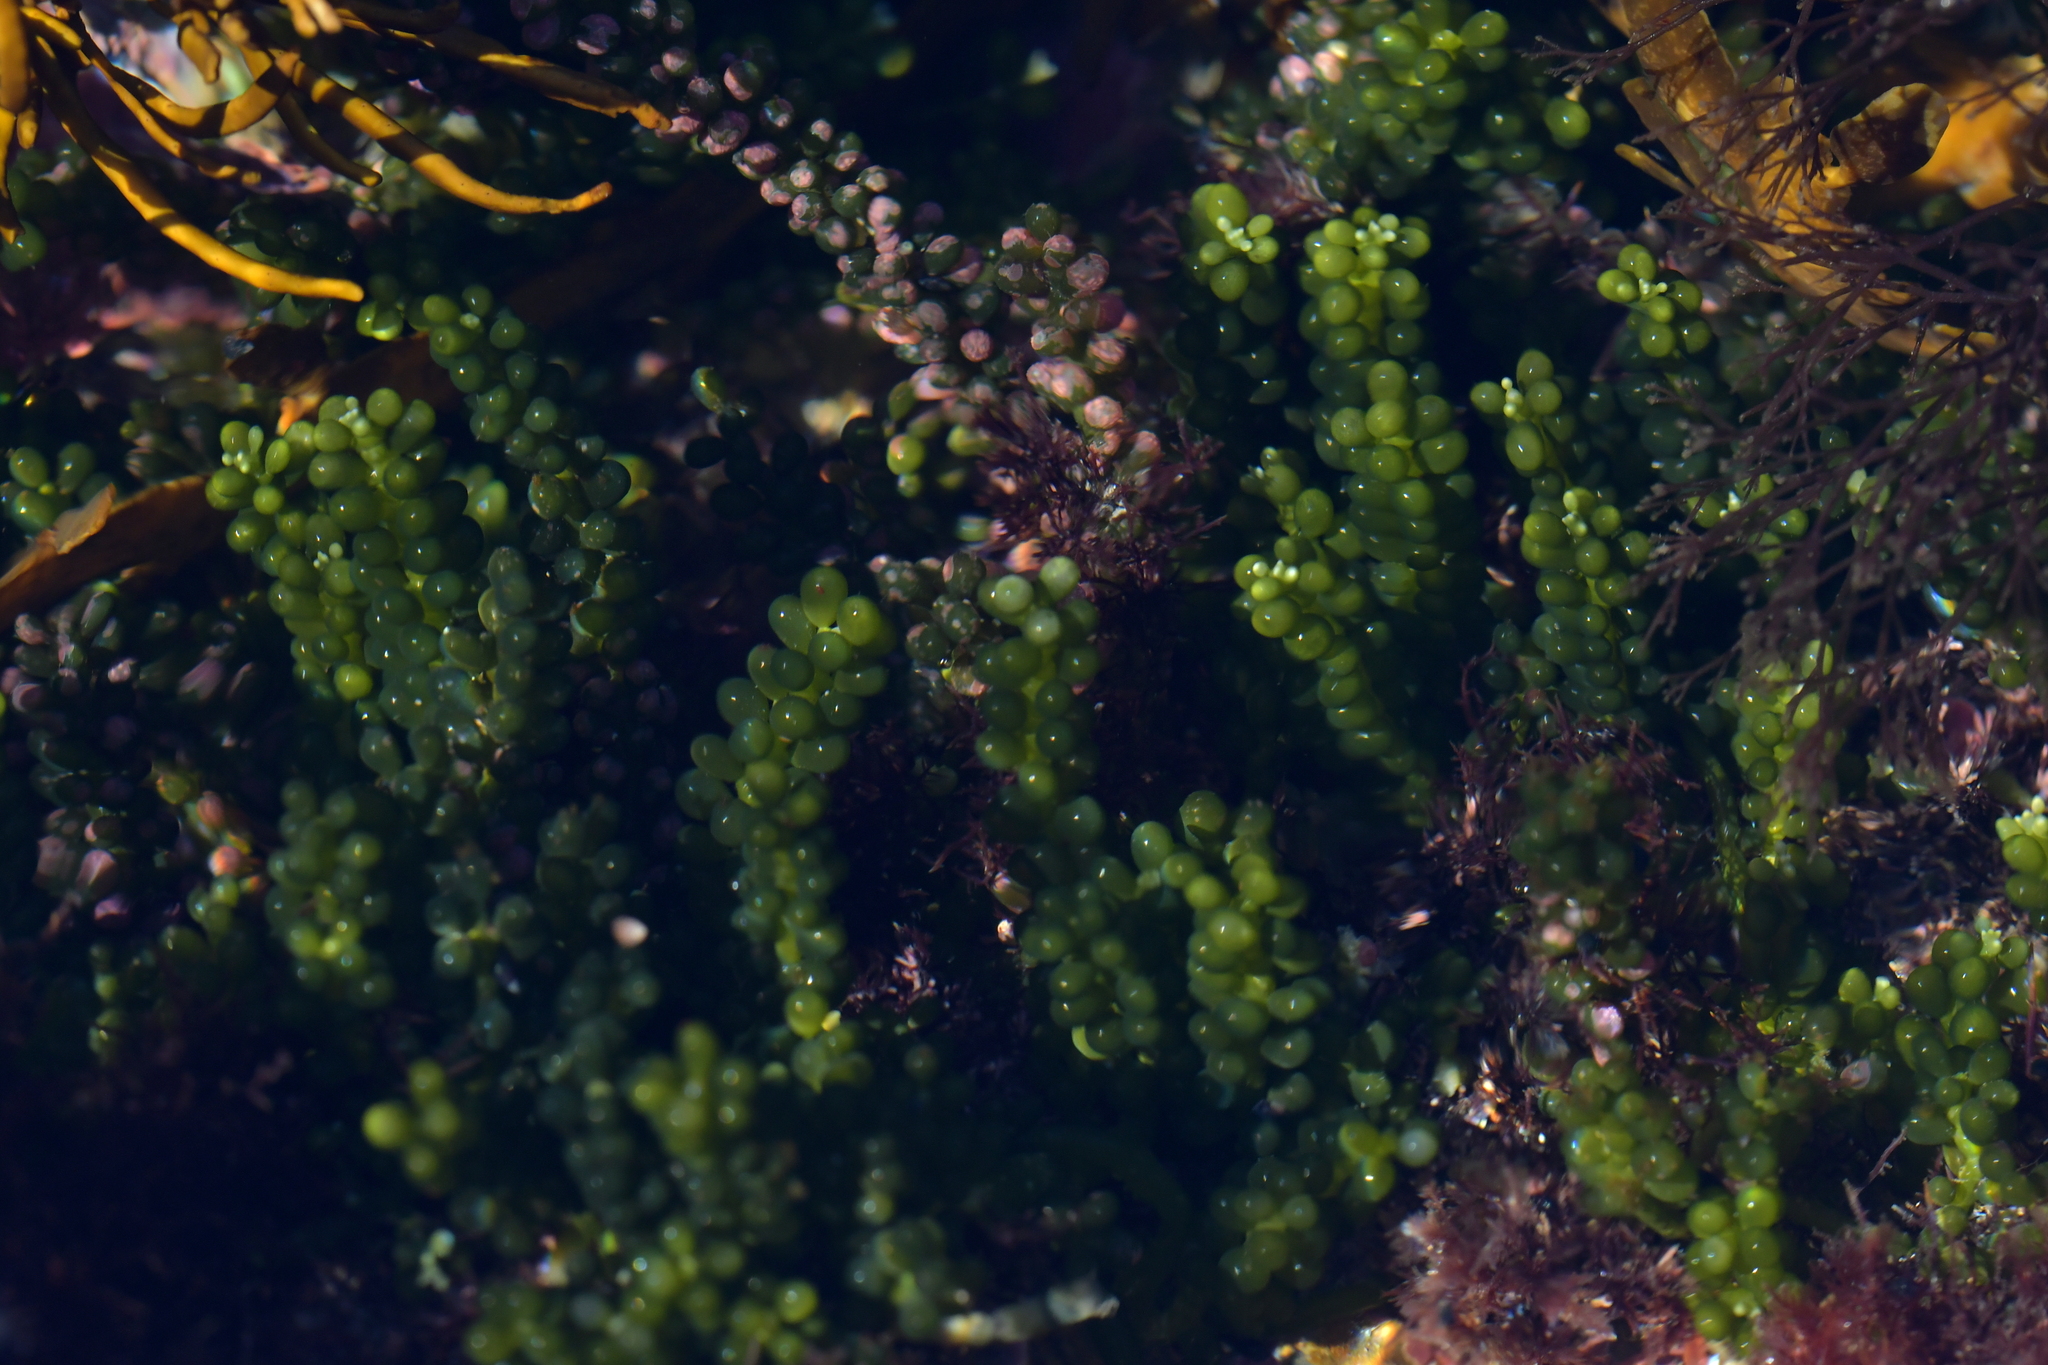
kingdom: Plantae
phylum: Chlorophyta
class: Ulvophyceae
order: Bryopsidales
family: Caulerpaceae
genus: Caulerpa
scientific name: Caulerpa geminata
